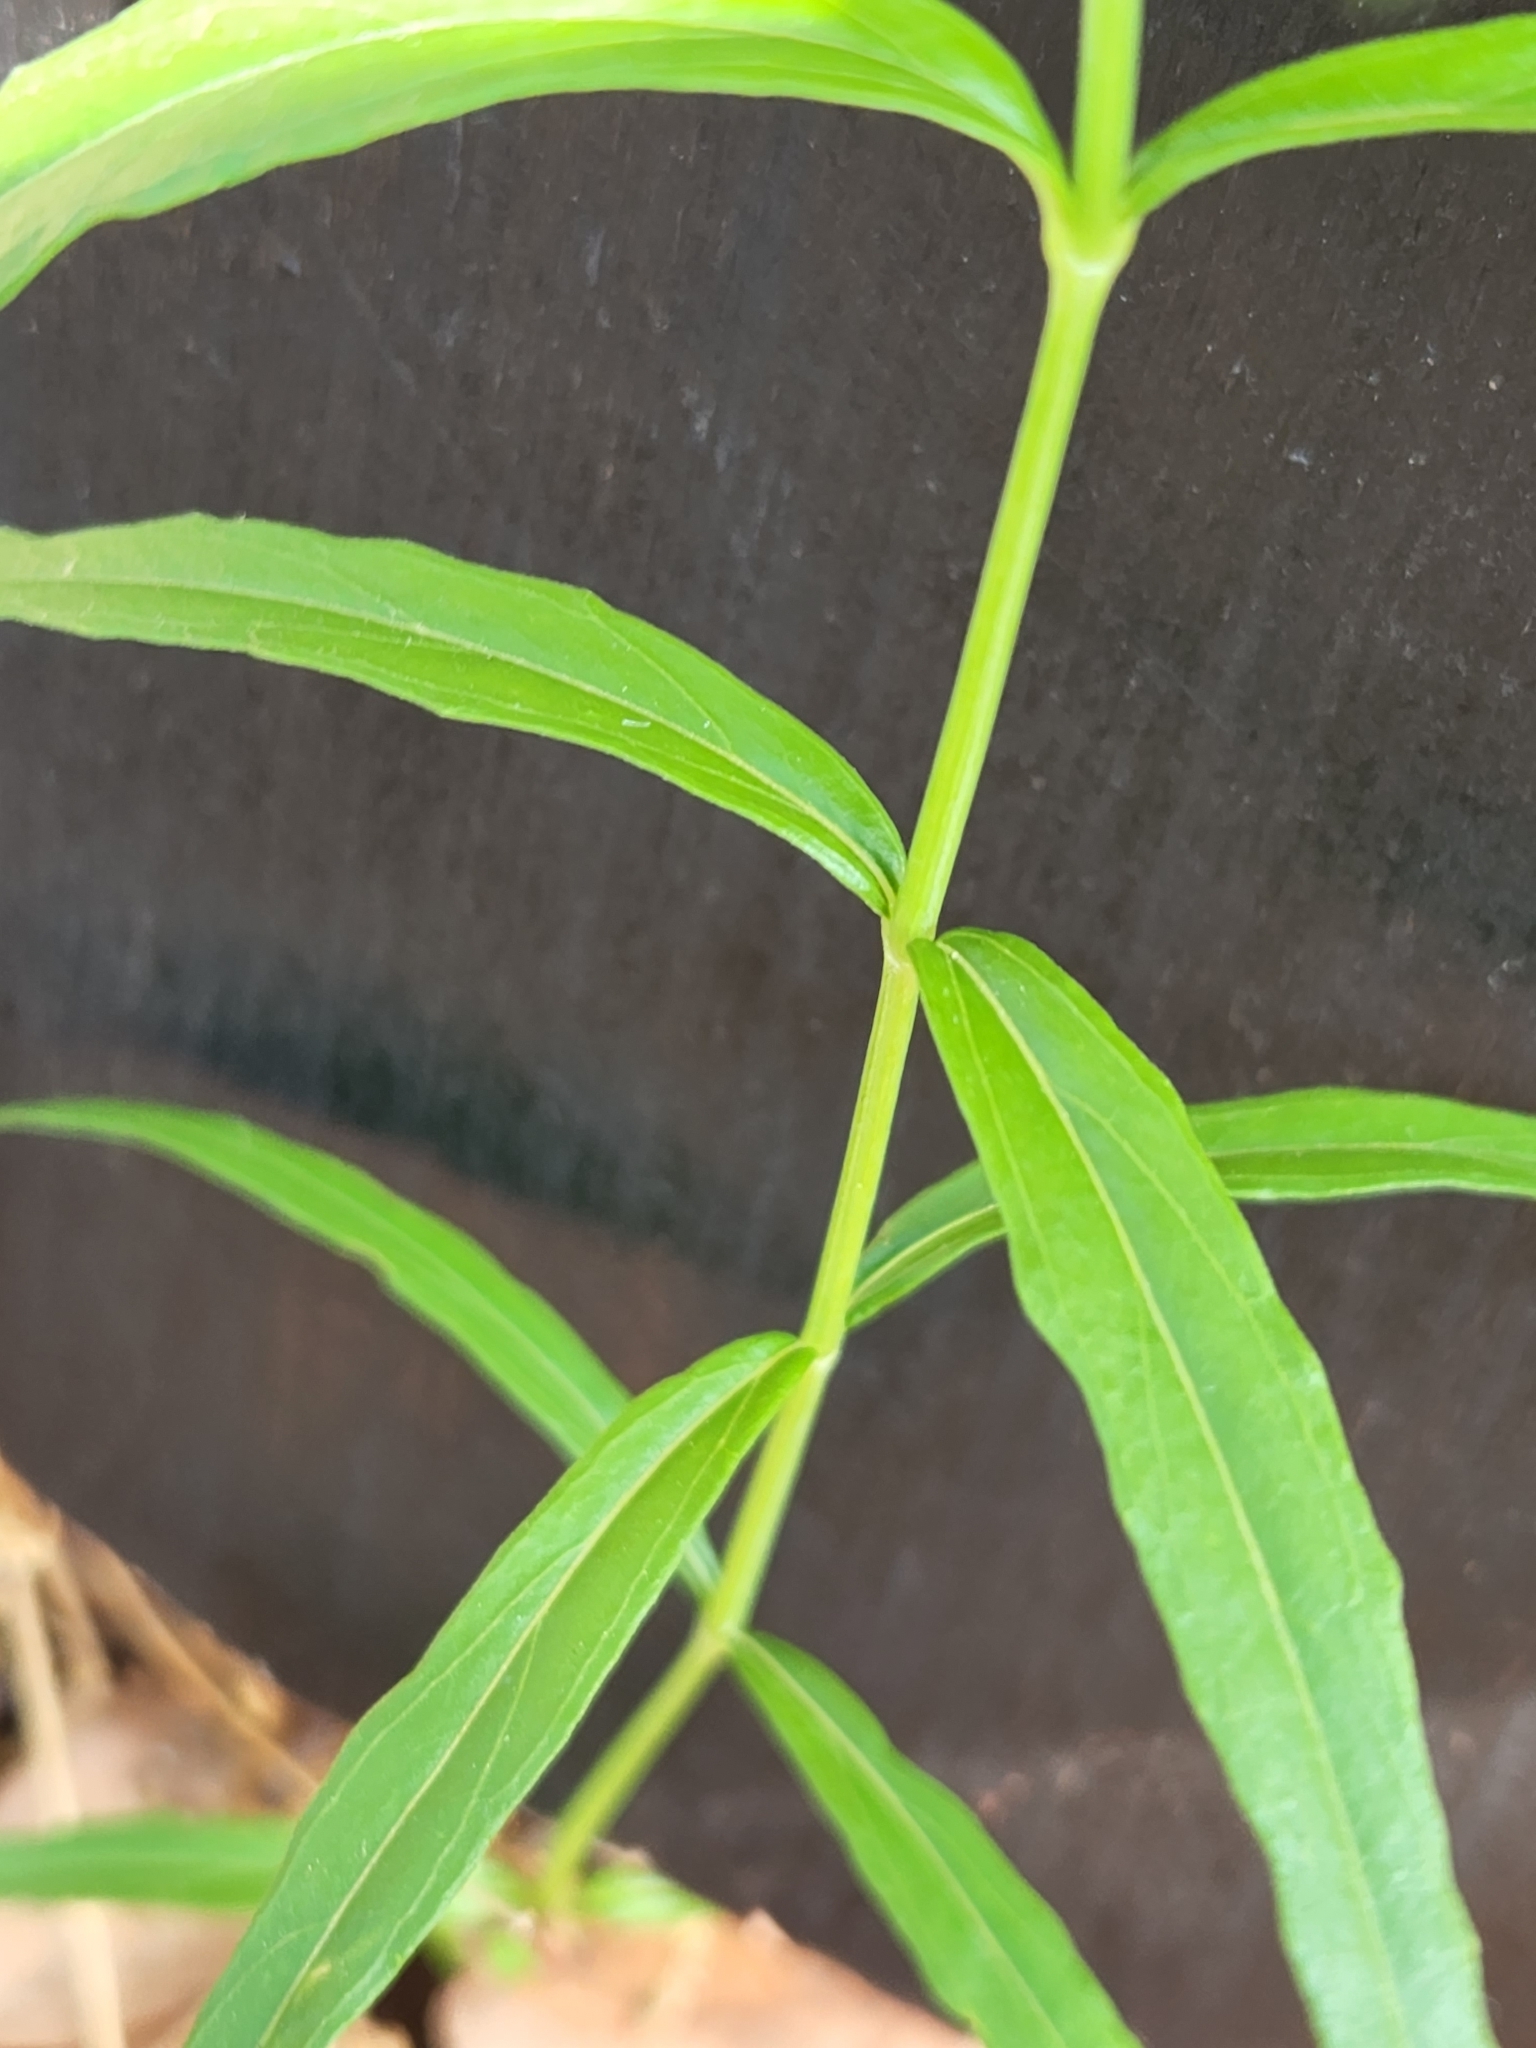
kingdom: Plantae
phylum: Tracheophyta
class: Magnoliopsida
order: Lamiales
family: Acanthaceae
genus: Carlowrightia
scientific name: Carlowrightia linearifolia
